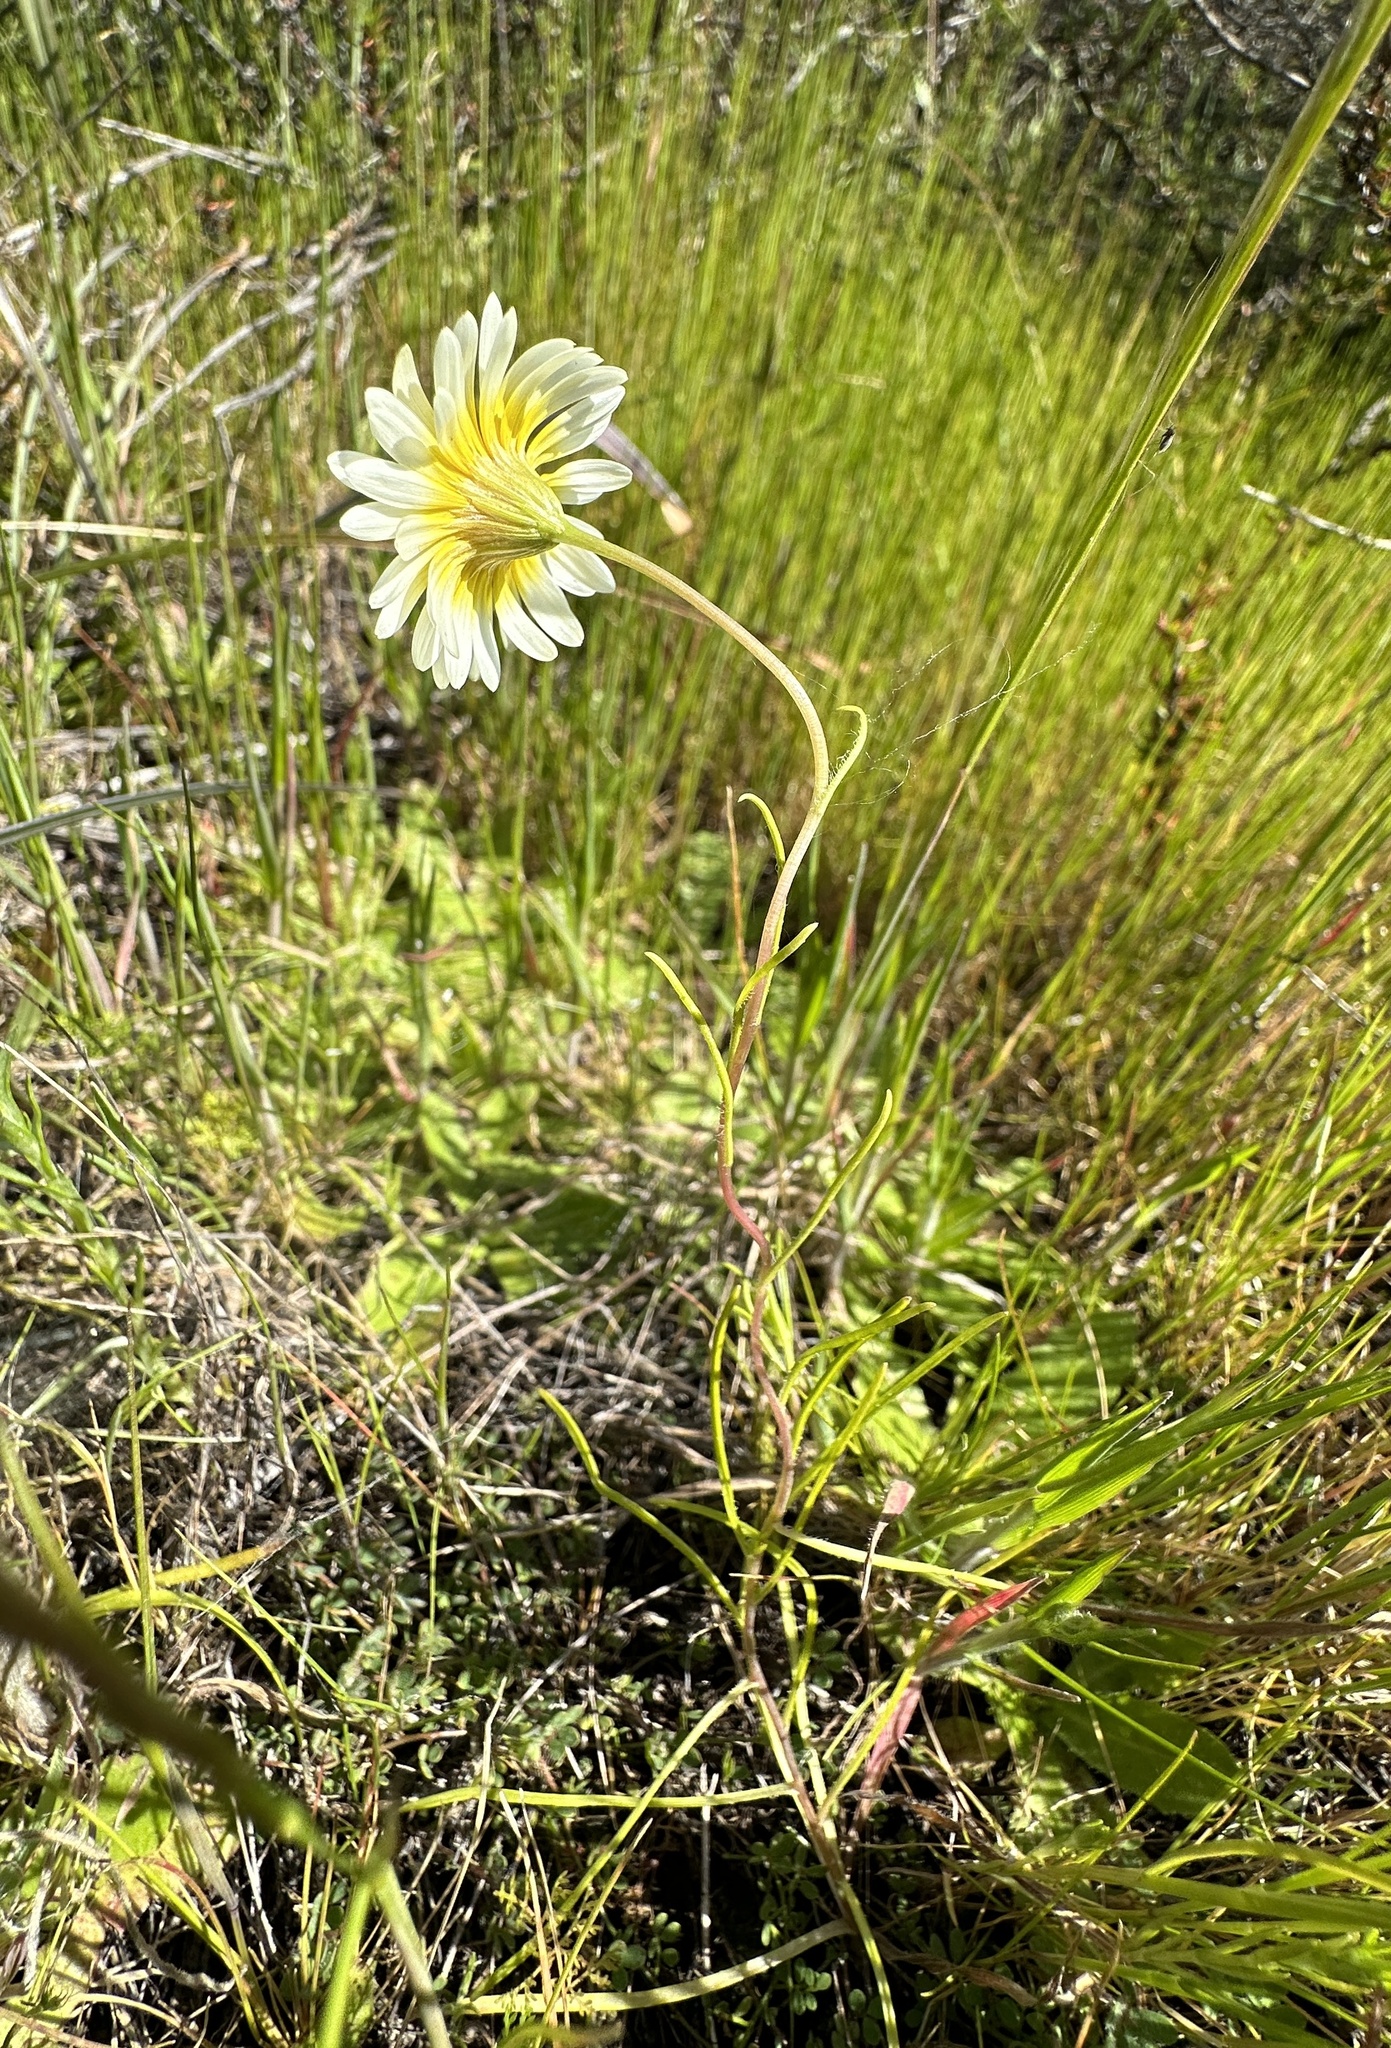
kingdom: Plantae
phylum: Tracheophyta
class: Magnoliopsida
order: Asterales
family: Asteraceae
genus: Pentachaeta
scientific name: Pentachaeta aurea
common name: Golden-ray pentachaeta
